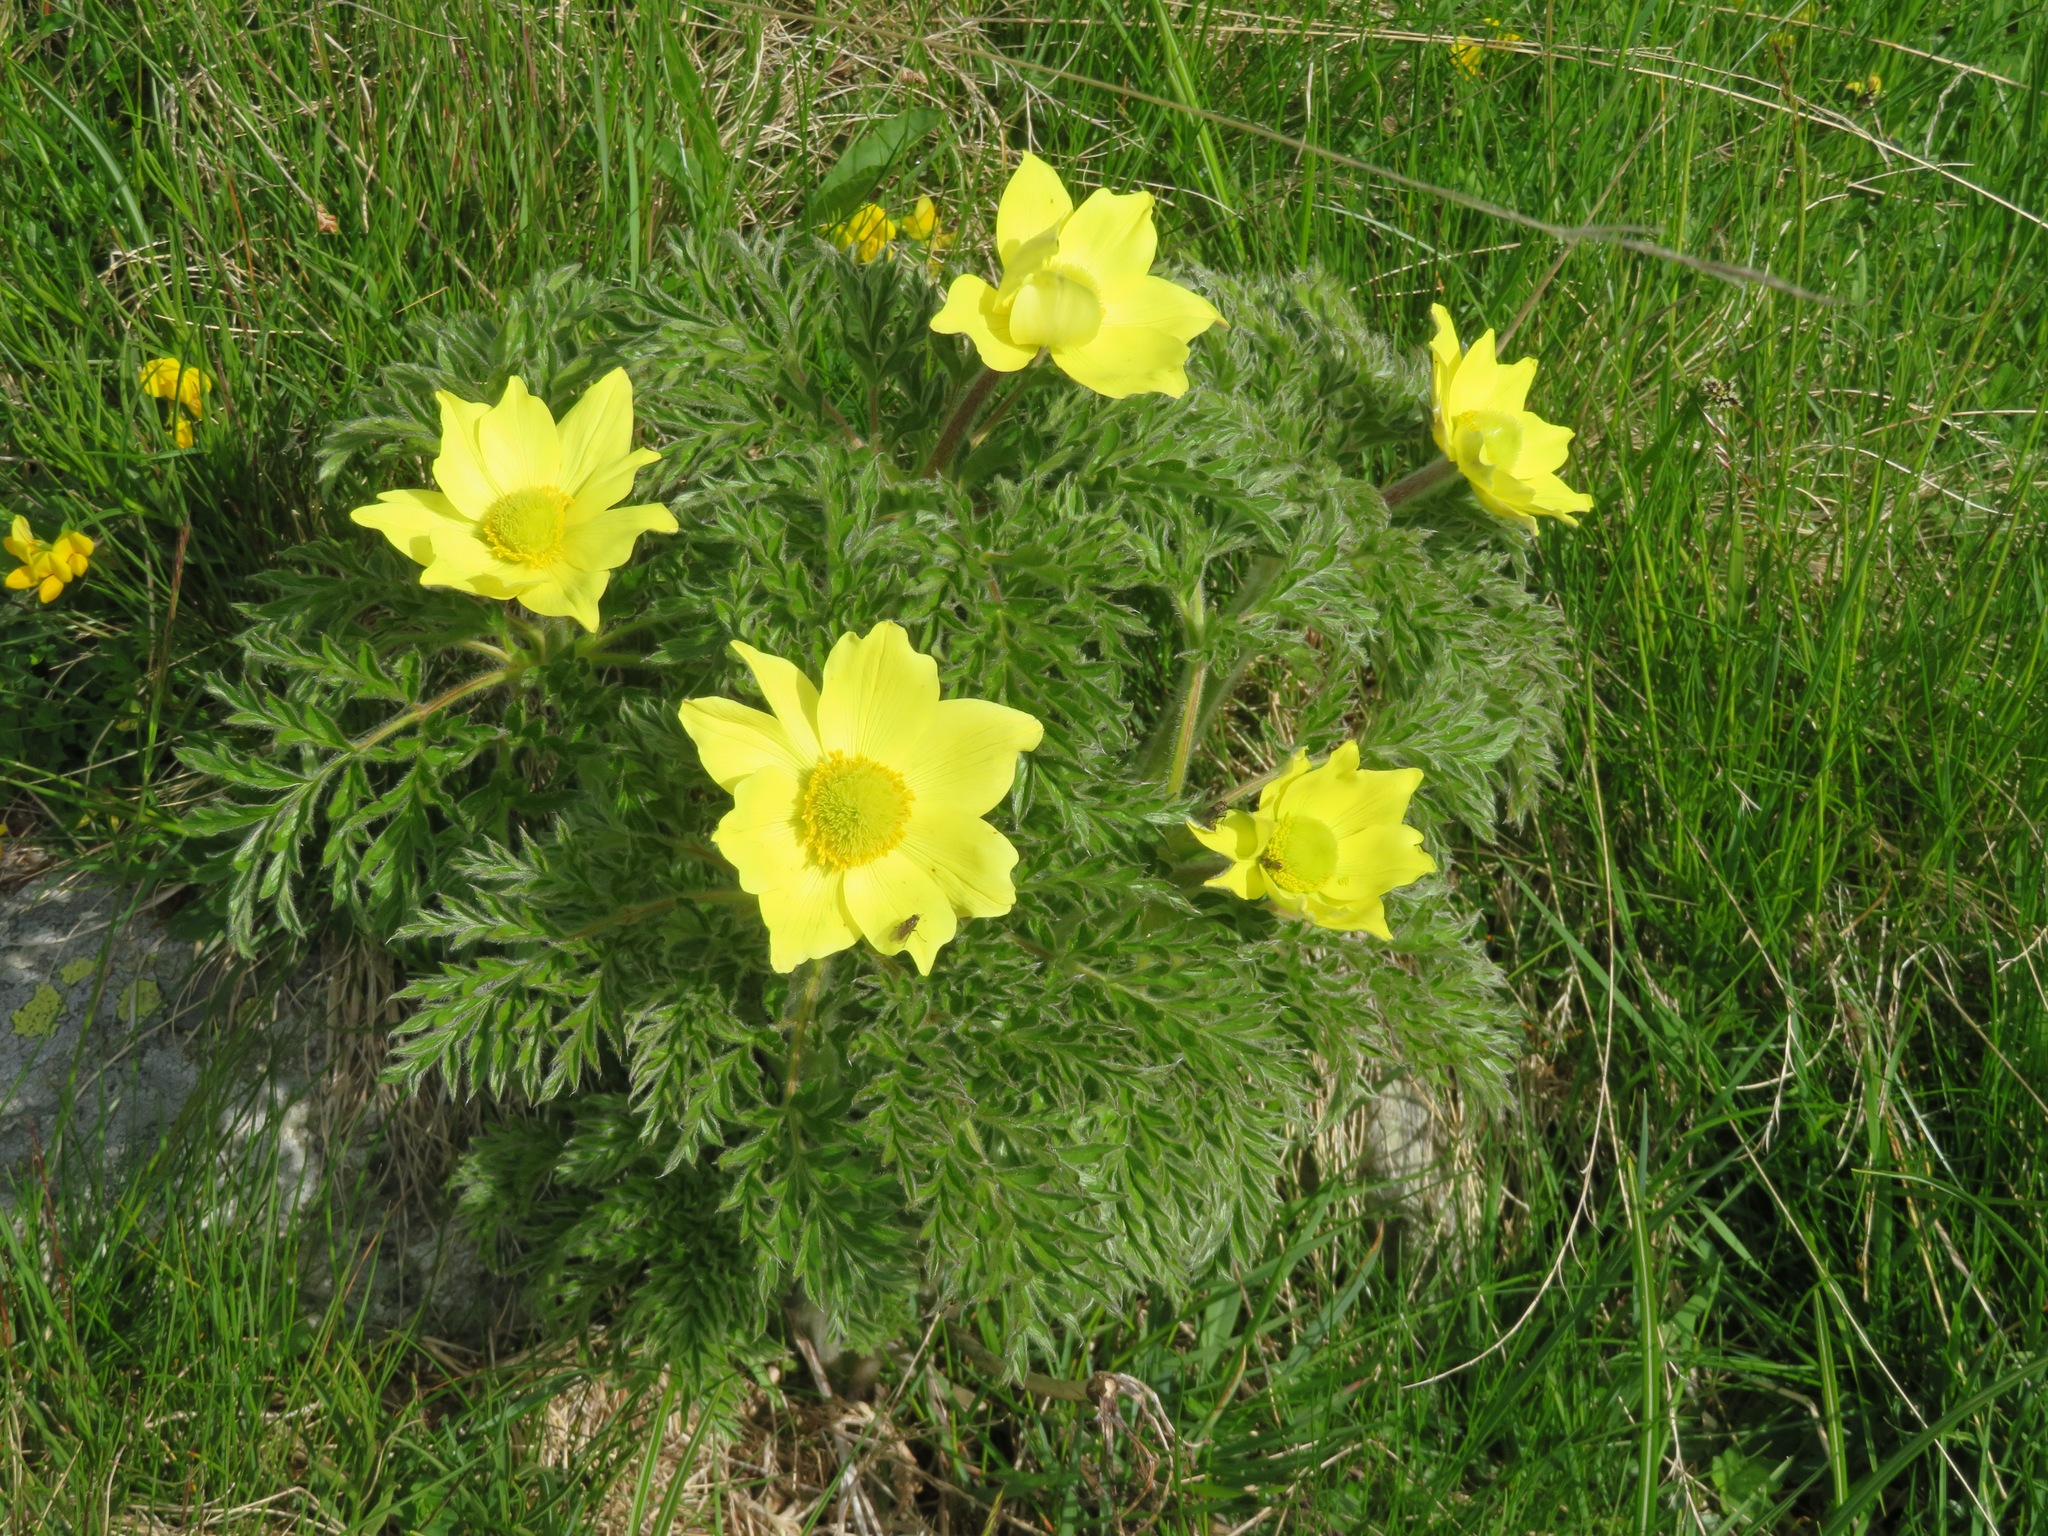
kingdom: Plantae
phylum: Tracheophyta
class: Magnoliopsida
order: Ranunculales
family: Ranunculaceae
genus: Pulsatilla
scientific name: Pulsatilla alpina
